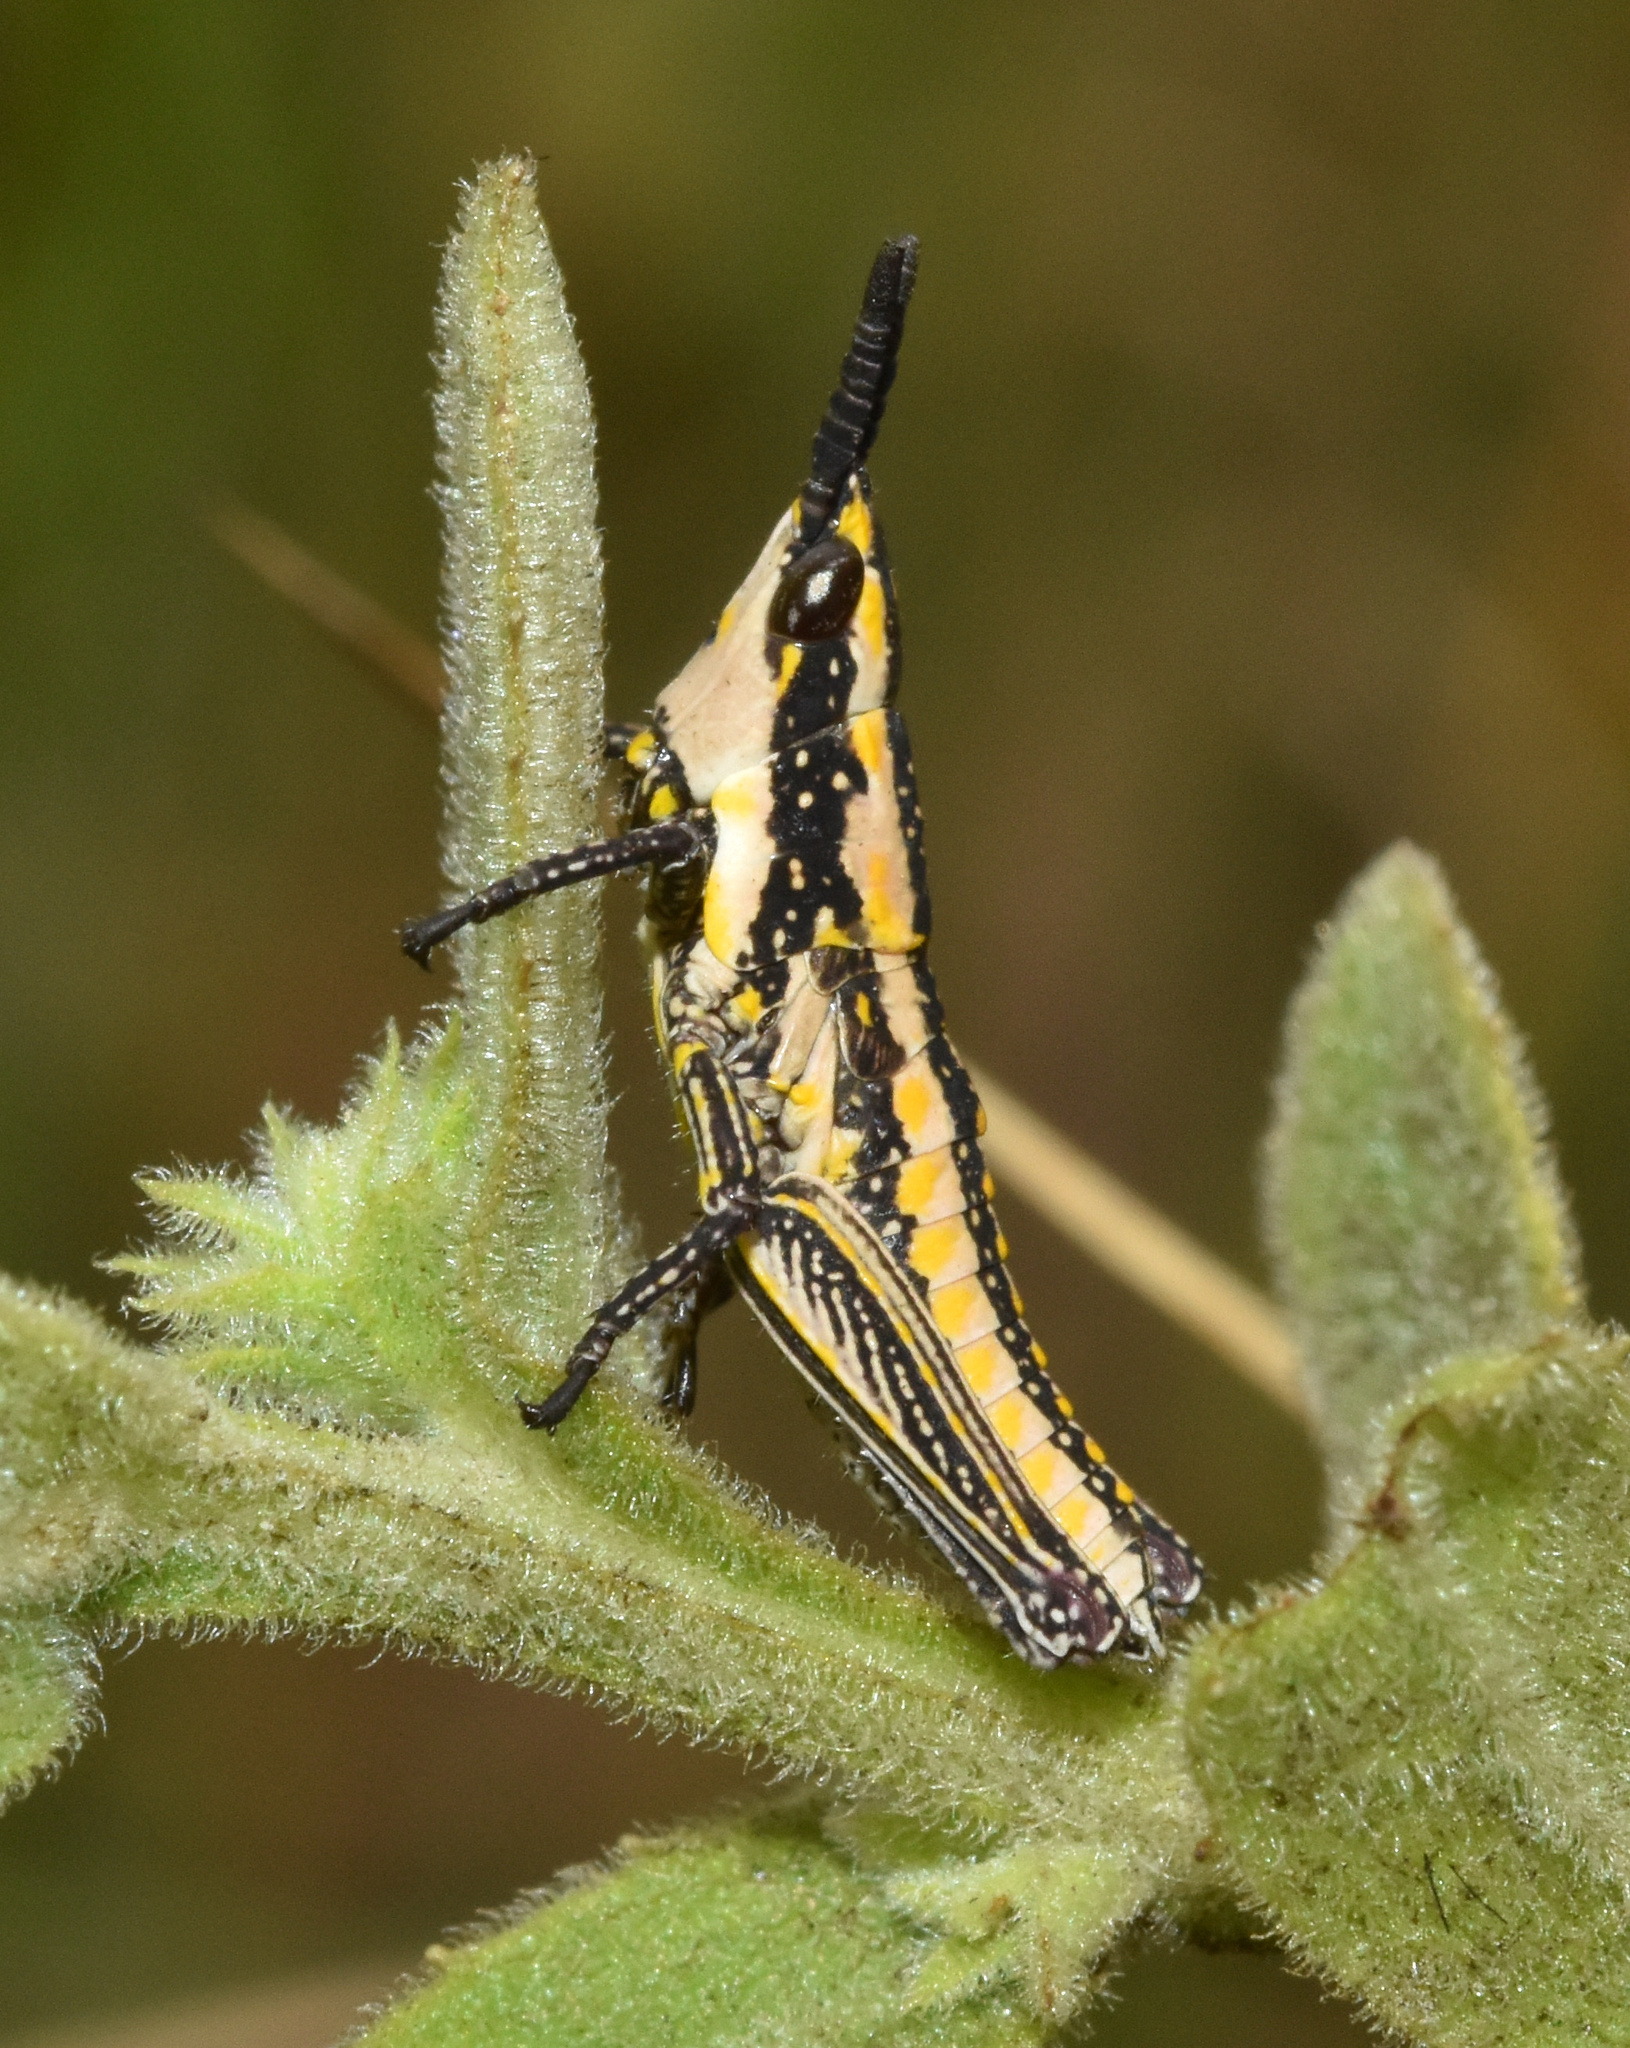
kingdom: Animalia
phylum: Arthropoda
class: Insecta
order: Orthoptera
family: Pyrgomorphidae
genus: Zonocerus
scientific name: Zonocerus elegans
